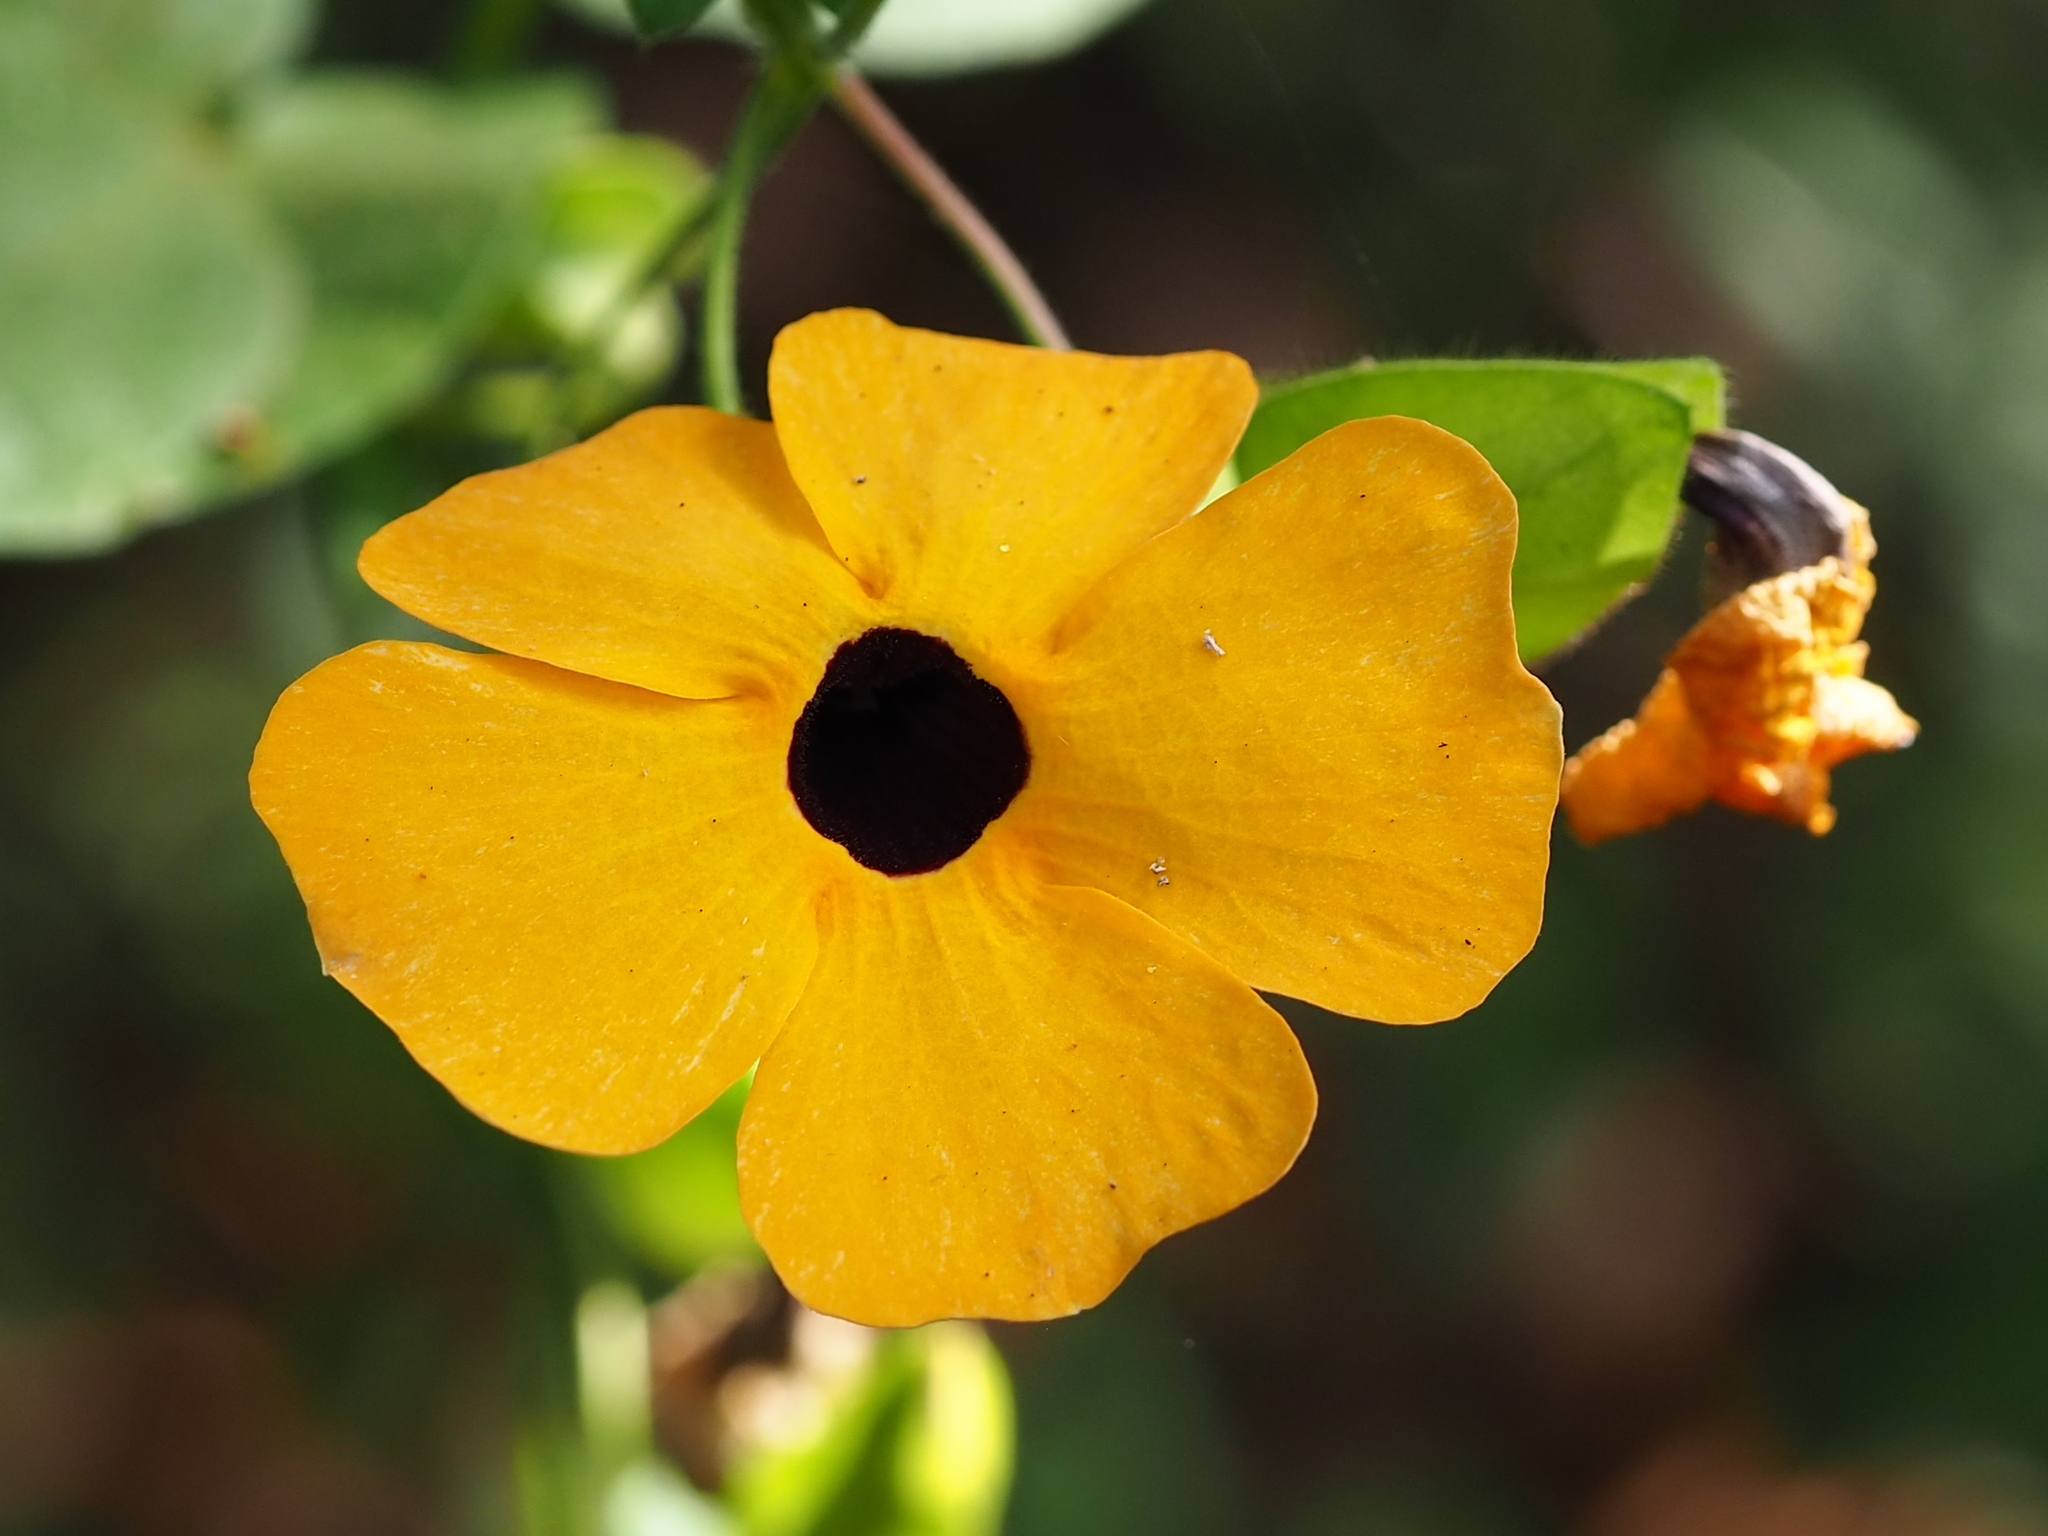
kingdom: Plantae
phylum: Tracheophyta
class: Magnoliopsida
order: Lamiales
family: Acanthaceae
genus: Thunbergia
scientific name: Thunbergia alata
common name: Blackeyed susan vine
